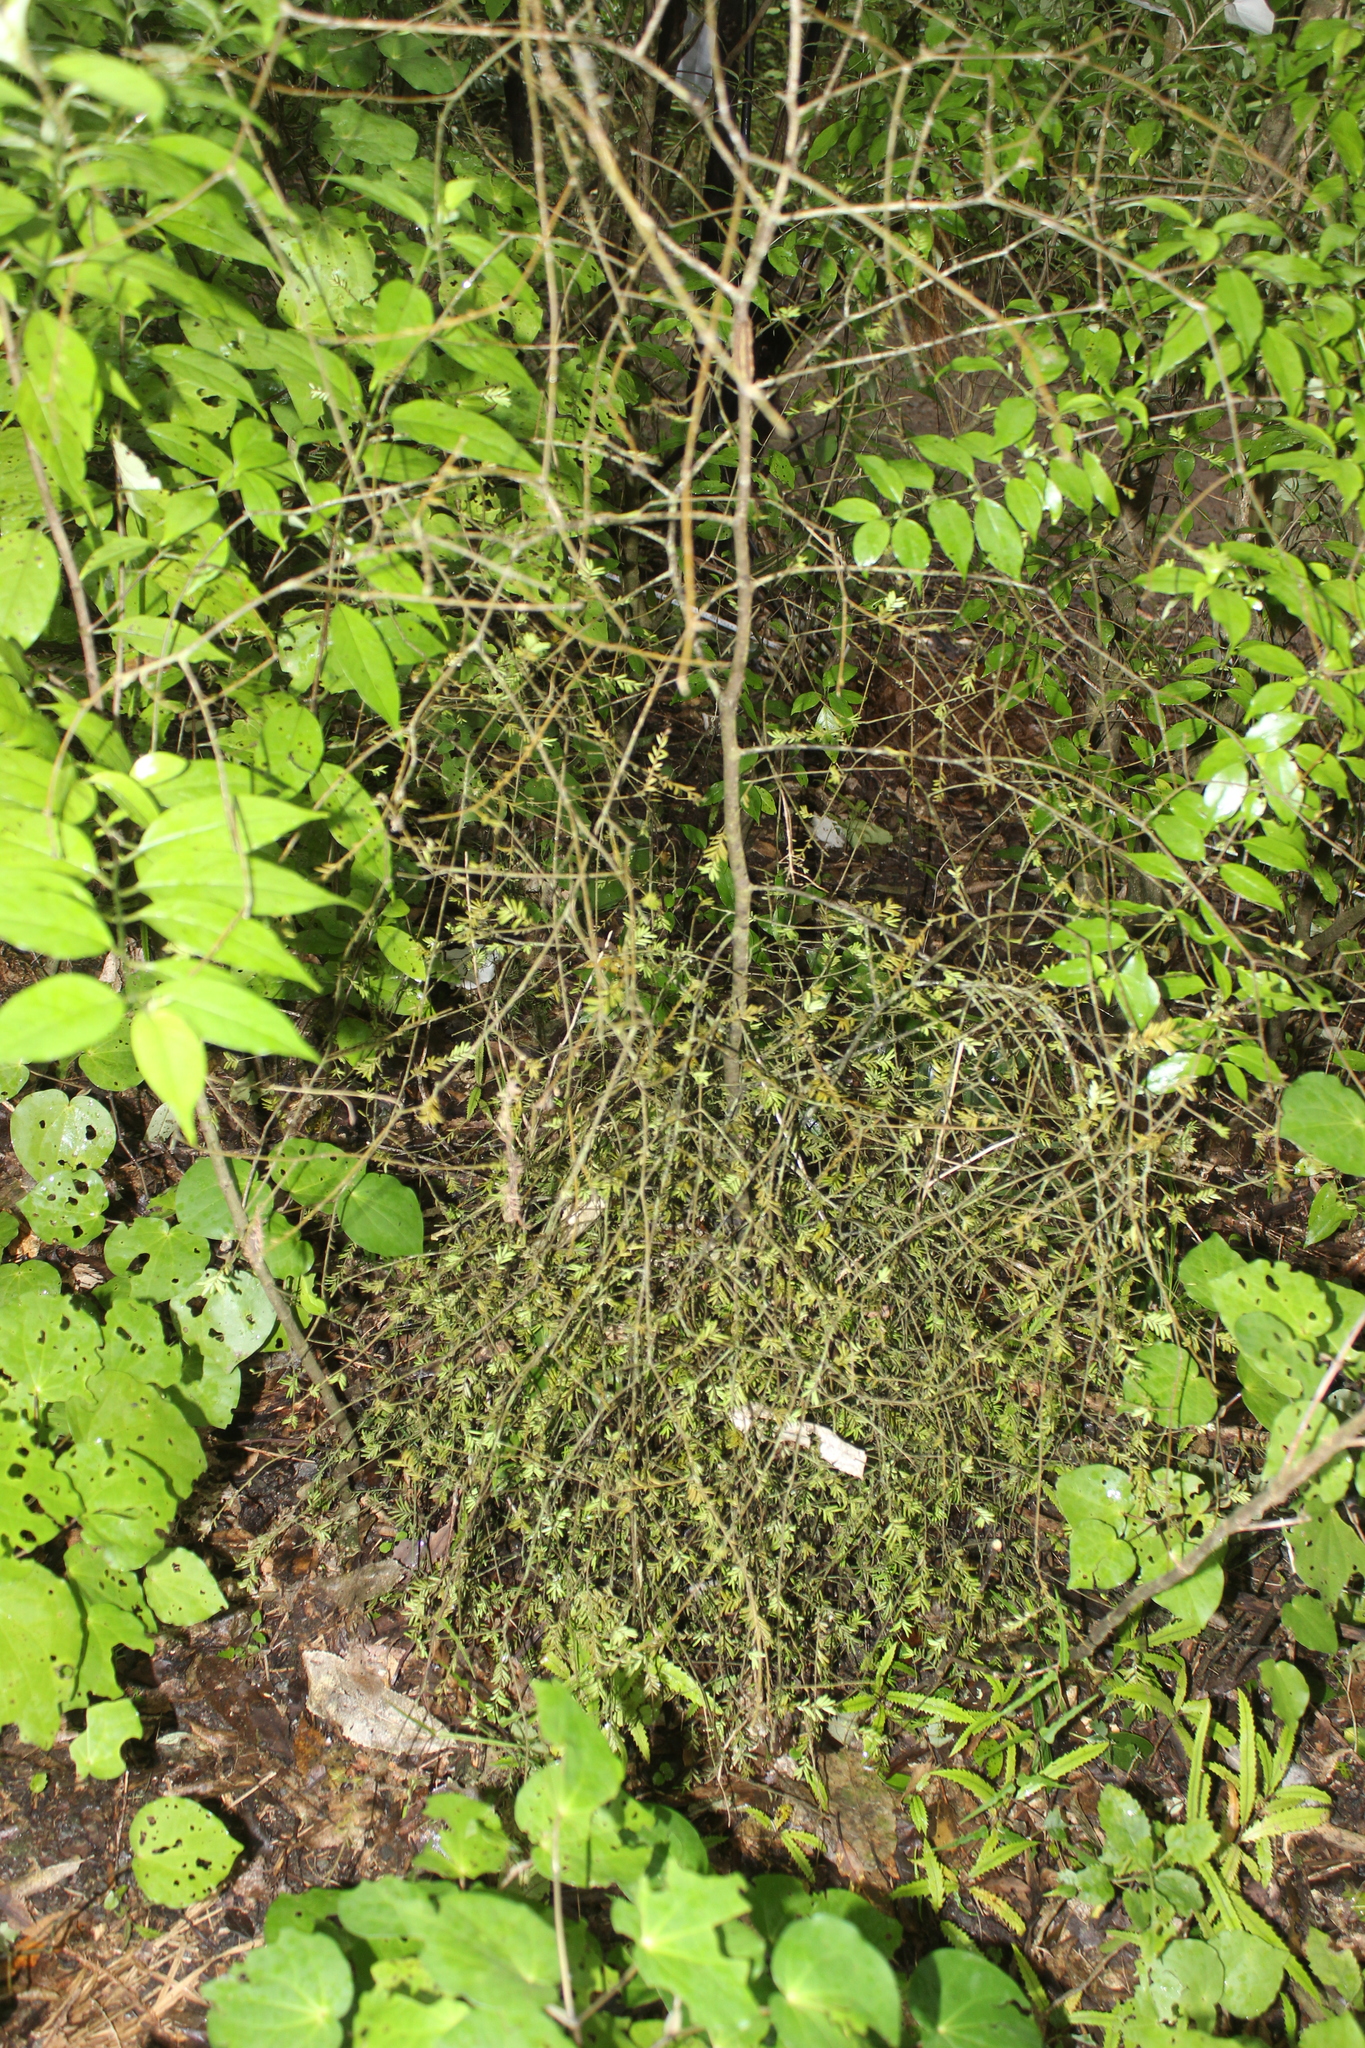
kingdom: Plantae
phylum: Tracheophyta
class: Pinopsida
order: Pinales
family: Podocarpaceae
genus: Prumnopitys
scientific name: Prumnopitys taxifolia
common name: Matai
